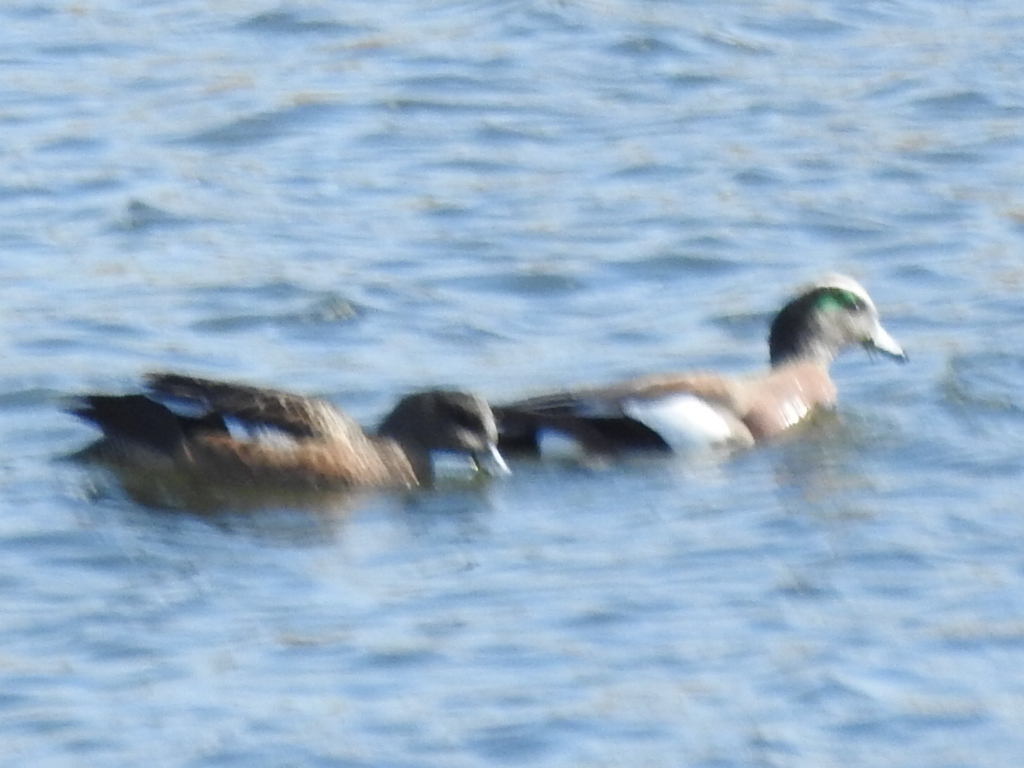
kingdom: Animalia
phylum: Chordata
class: Aves
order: Anseriformes
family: Anatidae
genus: Mareca
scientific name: Mareca americana
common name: American wigeon
